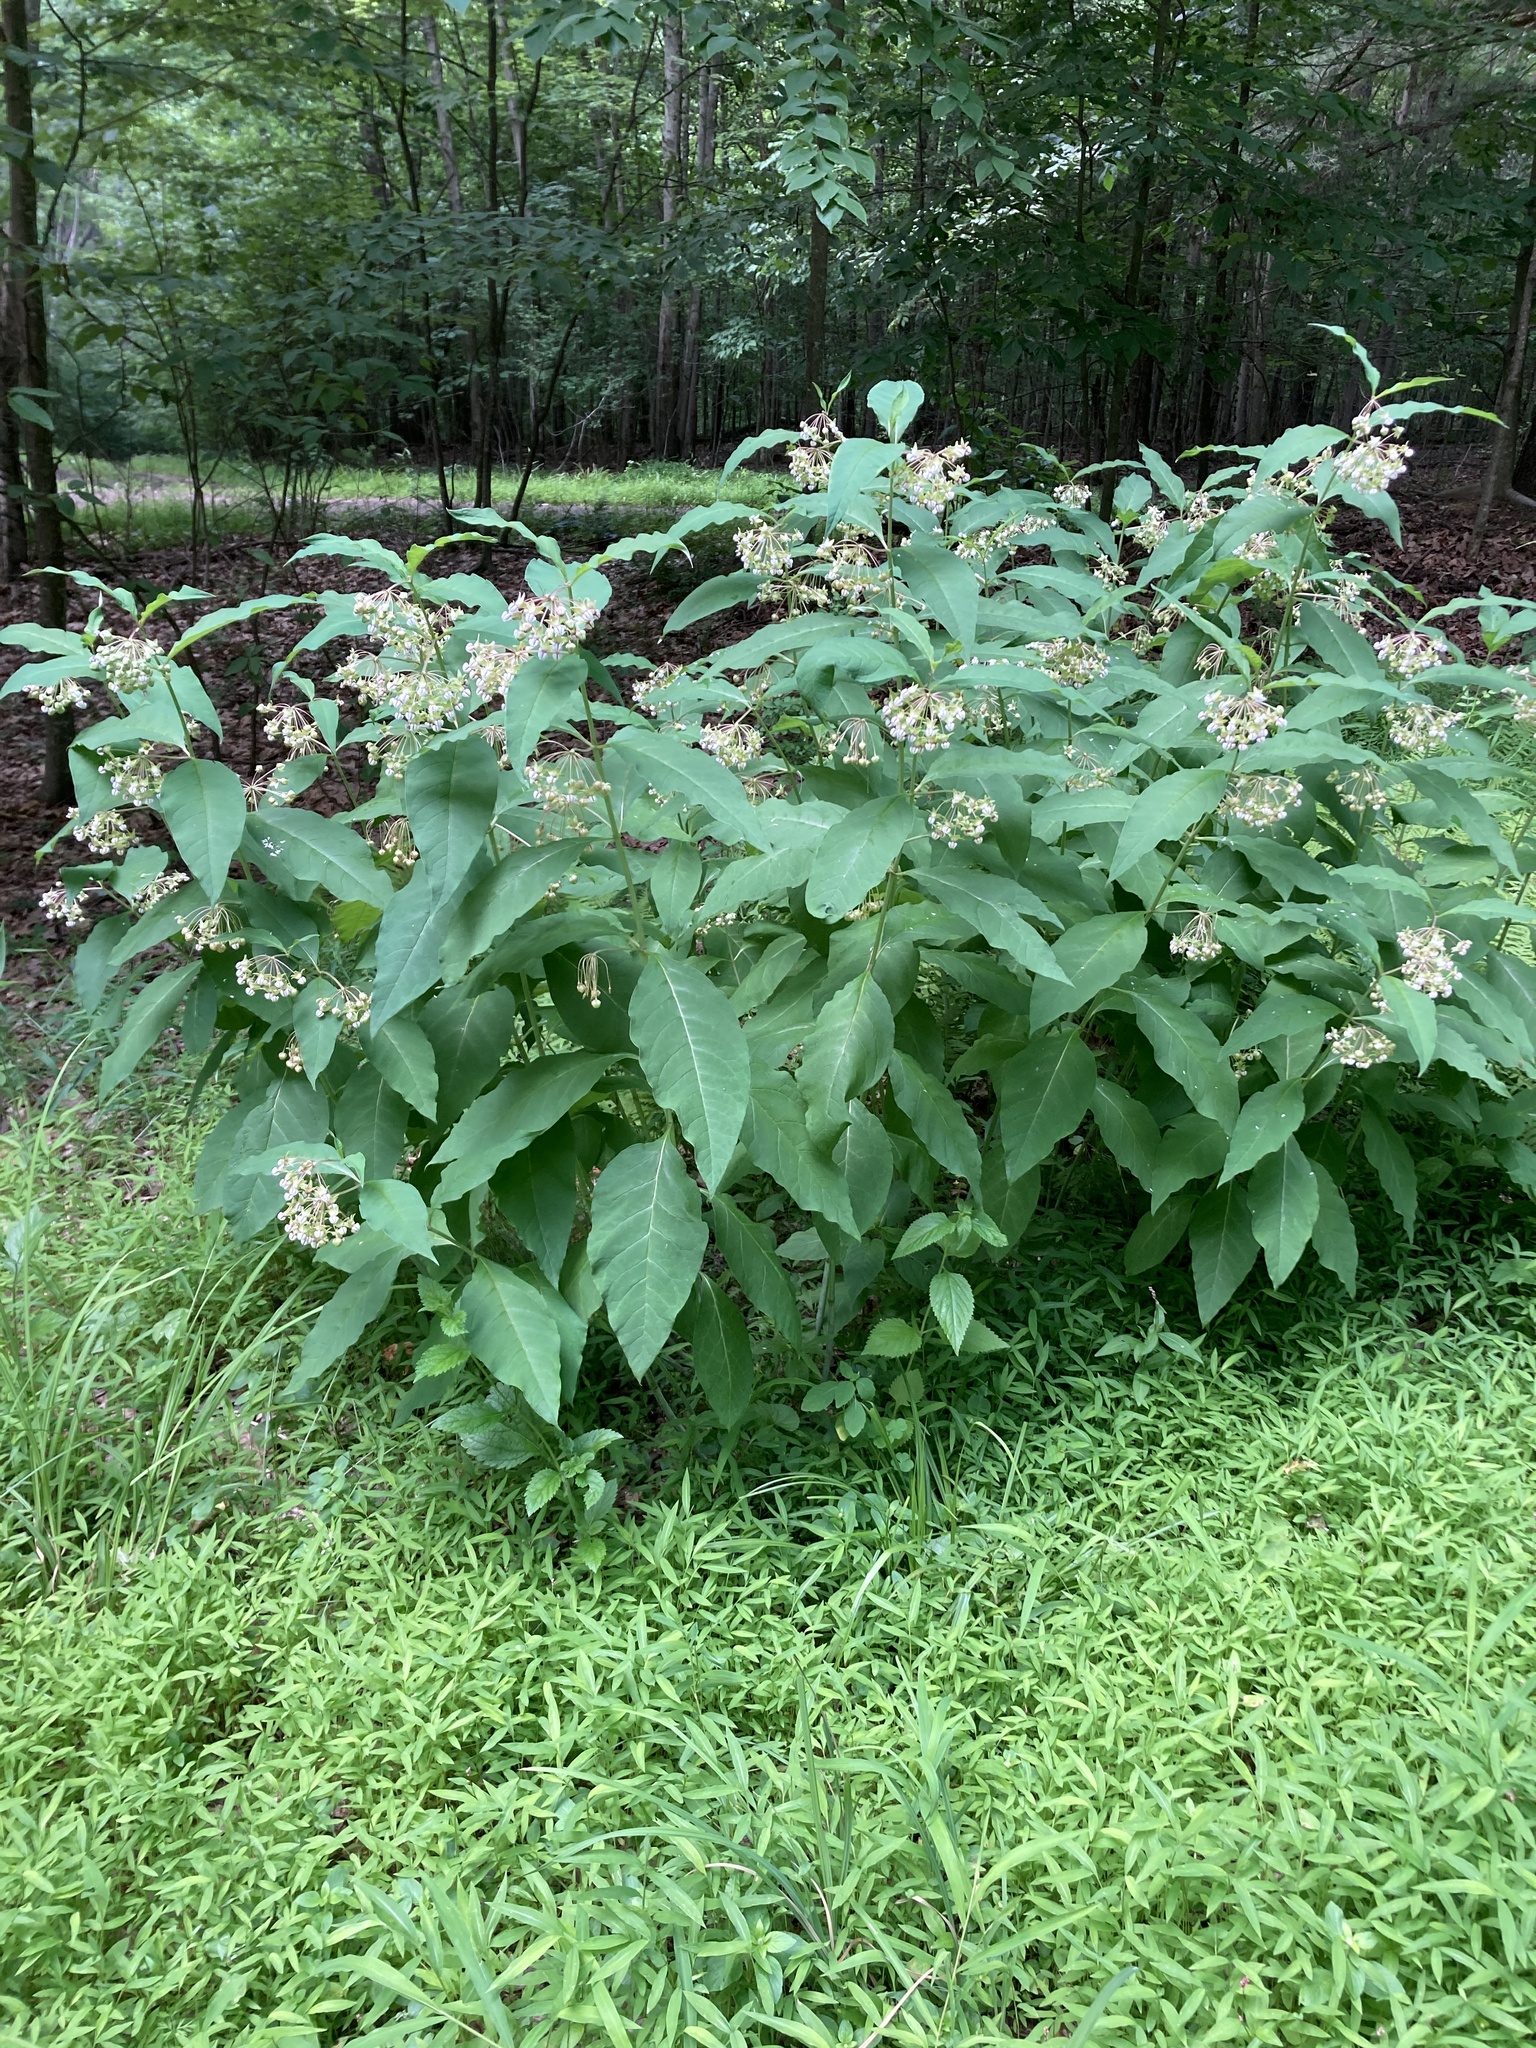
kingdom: Plantae
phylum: Tracheophyta
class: Magnoliopsida
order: Gentianales
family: Apocynaceae
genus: Asclepias
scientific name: Asclepias exaltata
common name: Poke milkweed
